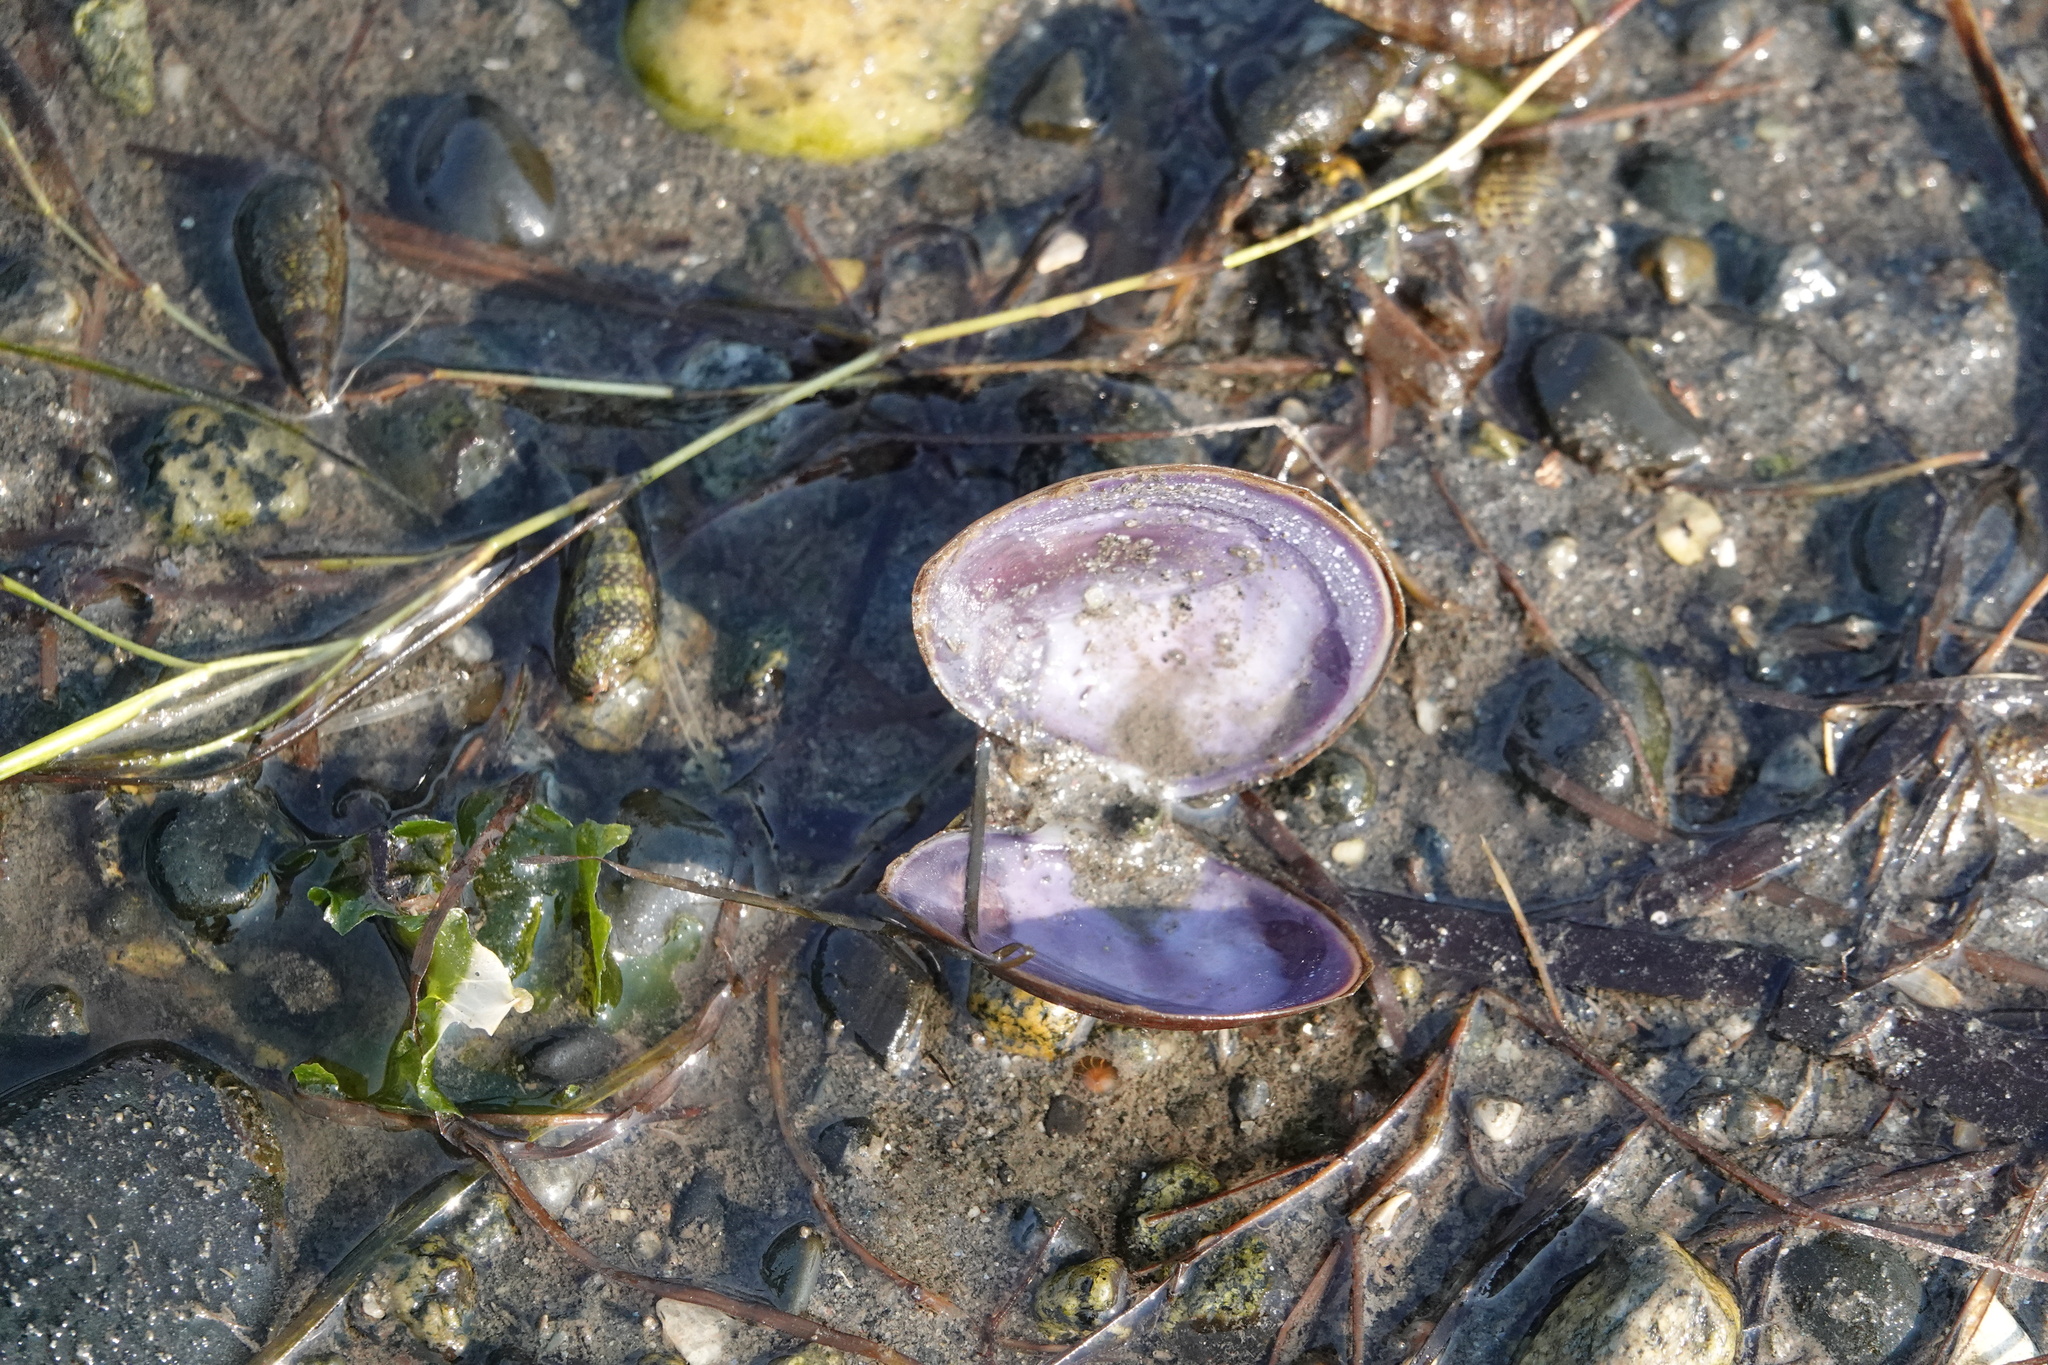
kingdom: Animalia
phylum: Mollusca
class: Bivalvia
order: Cardiida
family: Psammobiidae
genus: Nuttallia
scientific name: Nuttallia obscurata
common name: Purple mahogany-clam
